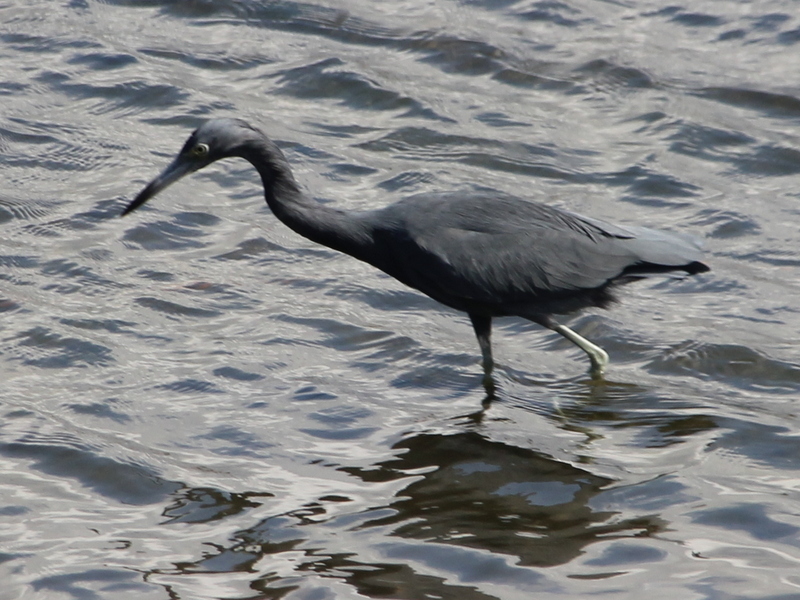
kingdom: Animalia
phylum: Chordata
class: Aves
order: Pelecaniformes
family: Ardeidae
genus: Egretta
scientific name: Egretta caerulea
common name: Little blue heron
